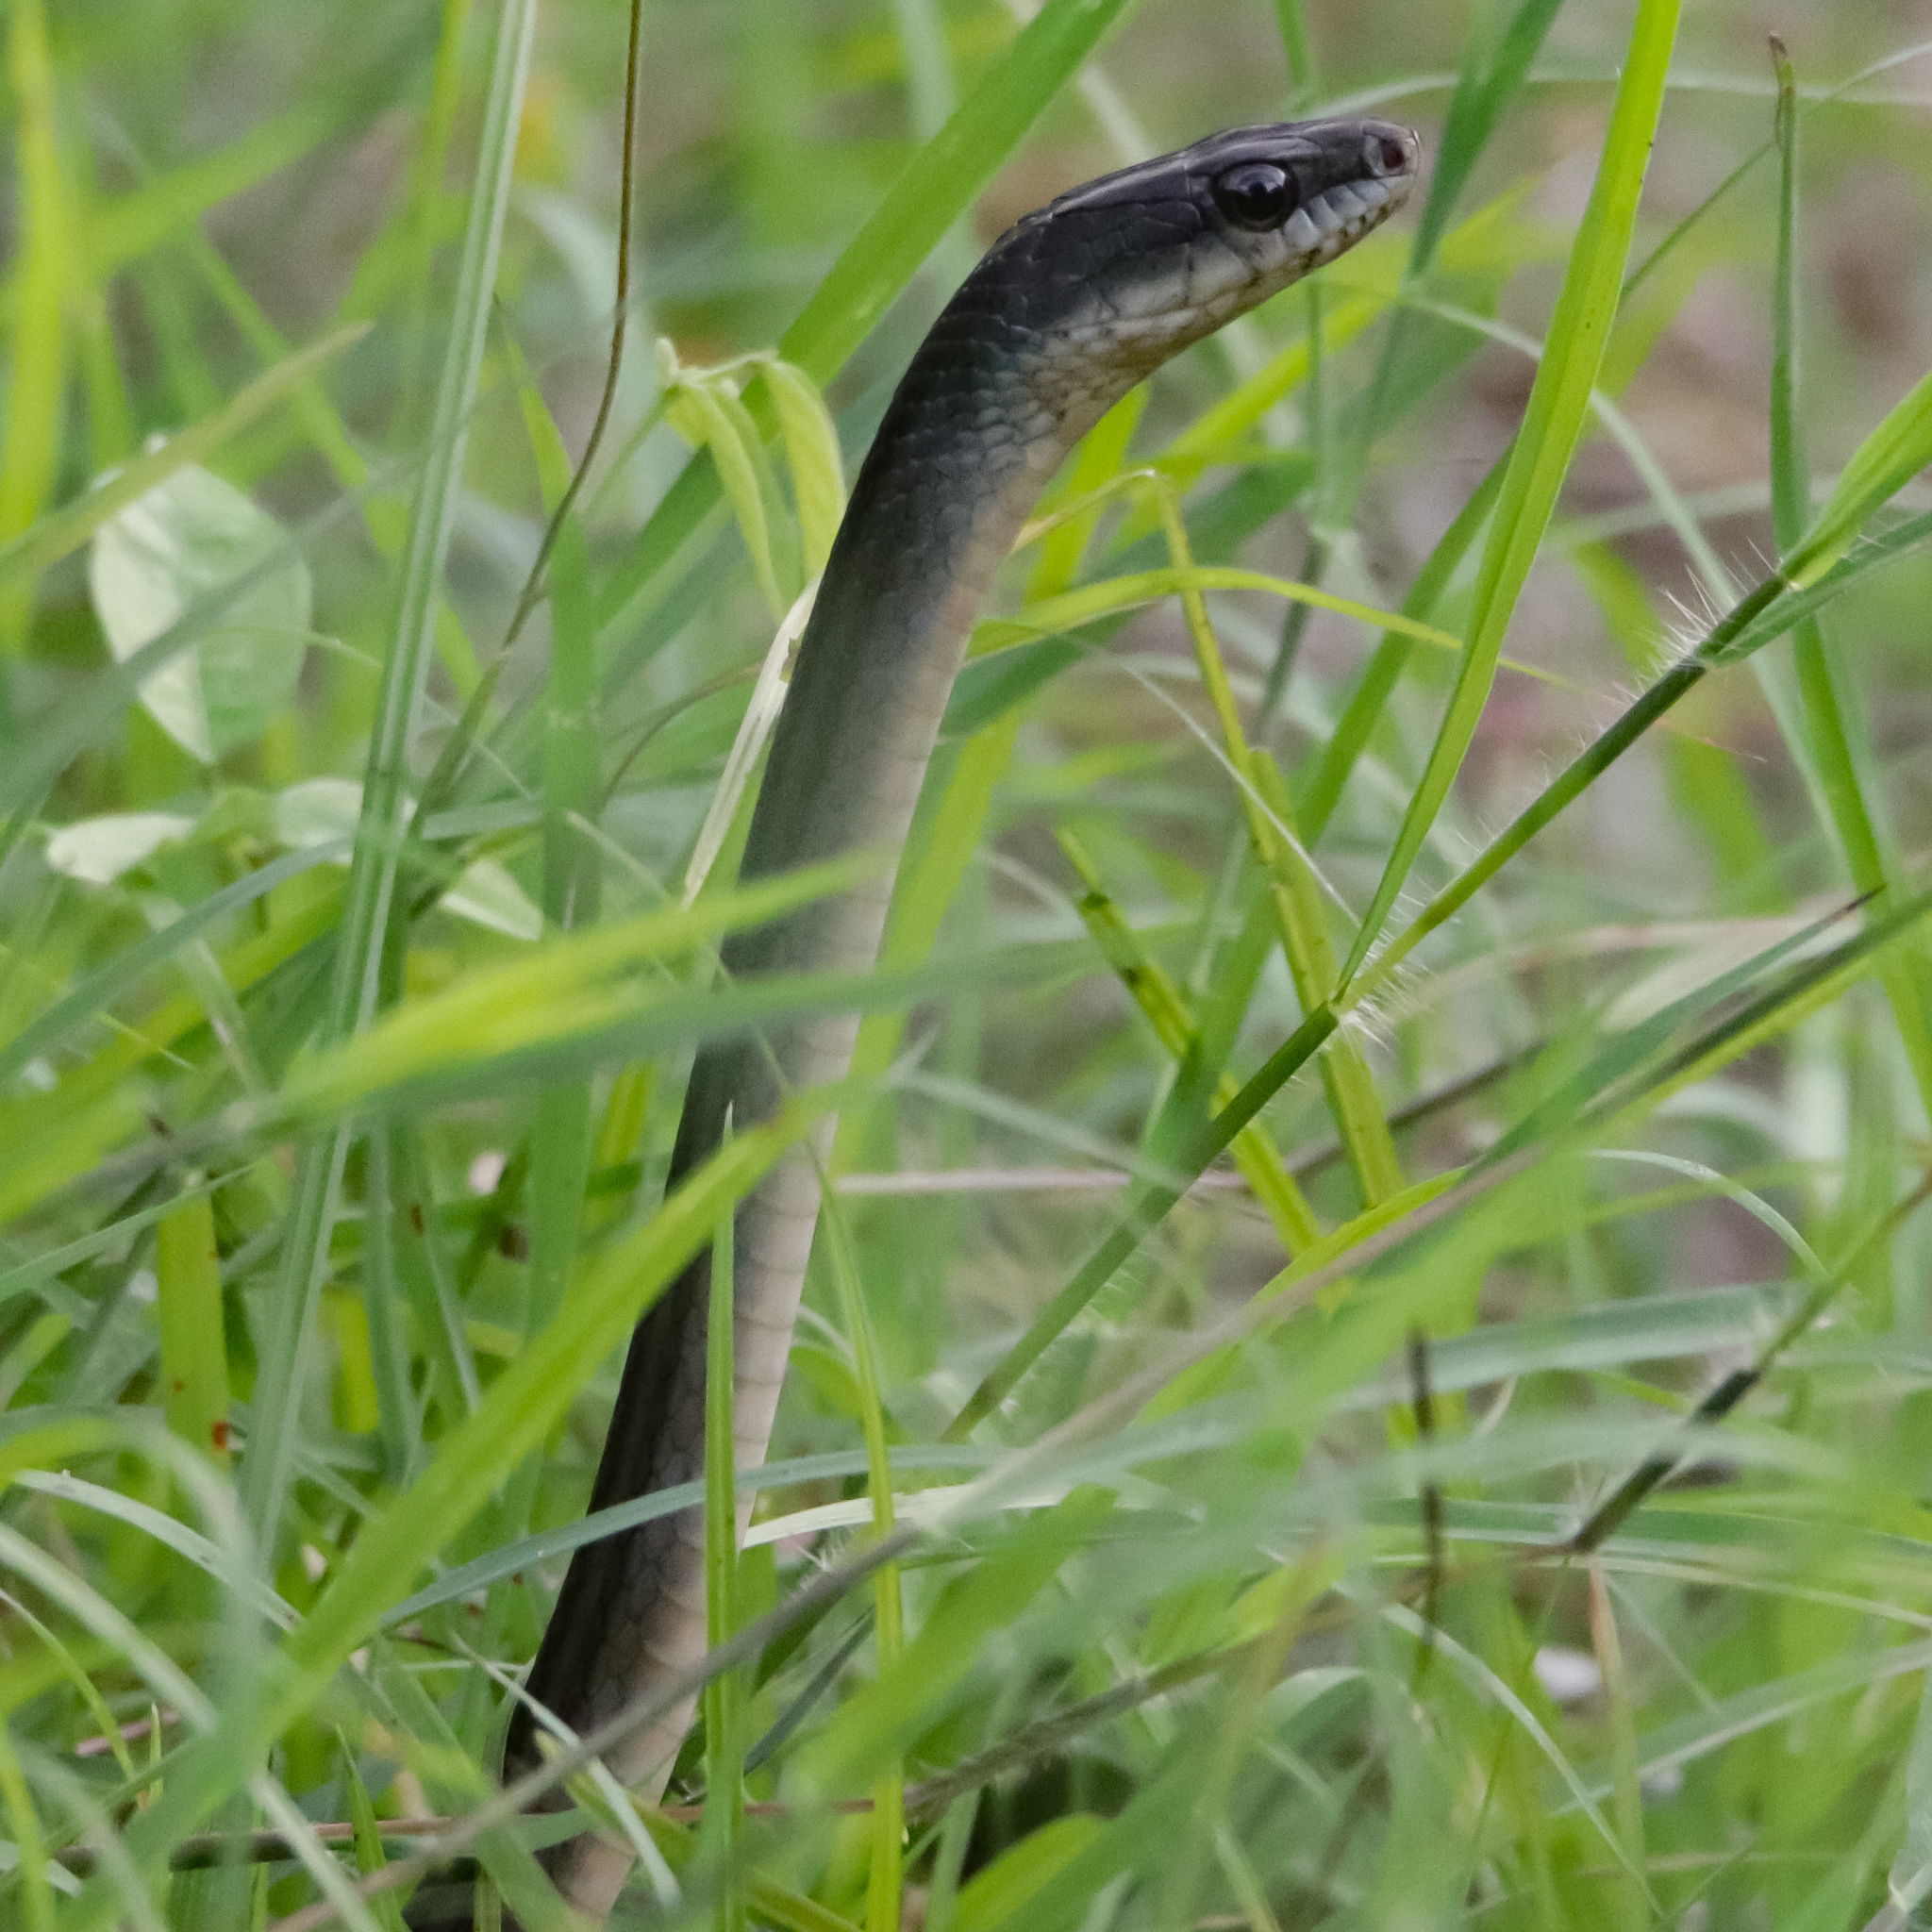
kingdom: Animalia
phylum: Chordata
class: Squamata
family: Colubridae
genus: Mastigodryas
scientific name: Mastigodryas alternatus
